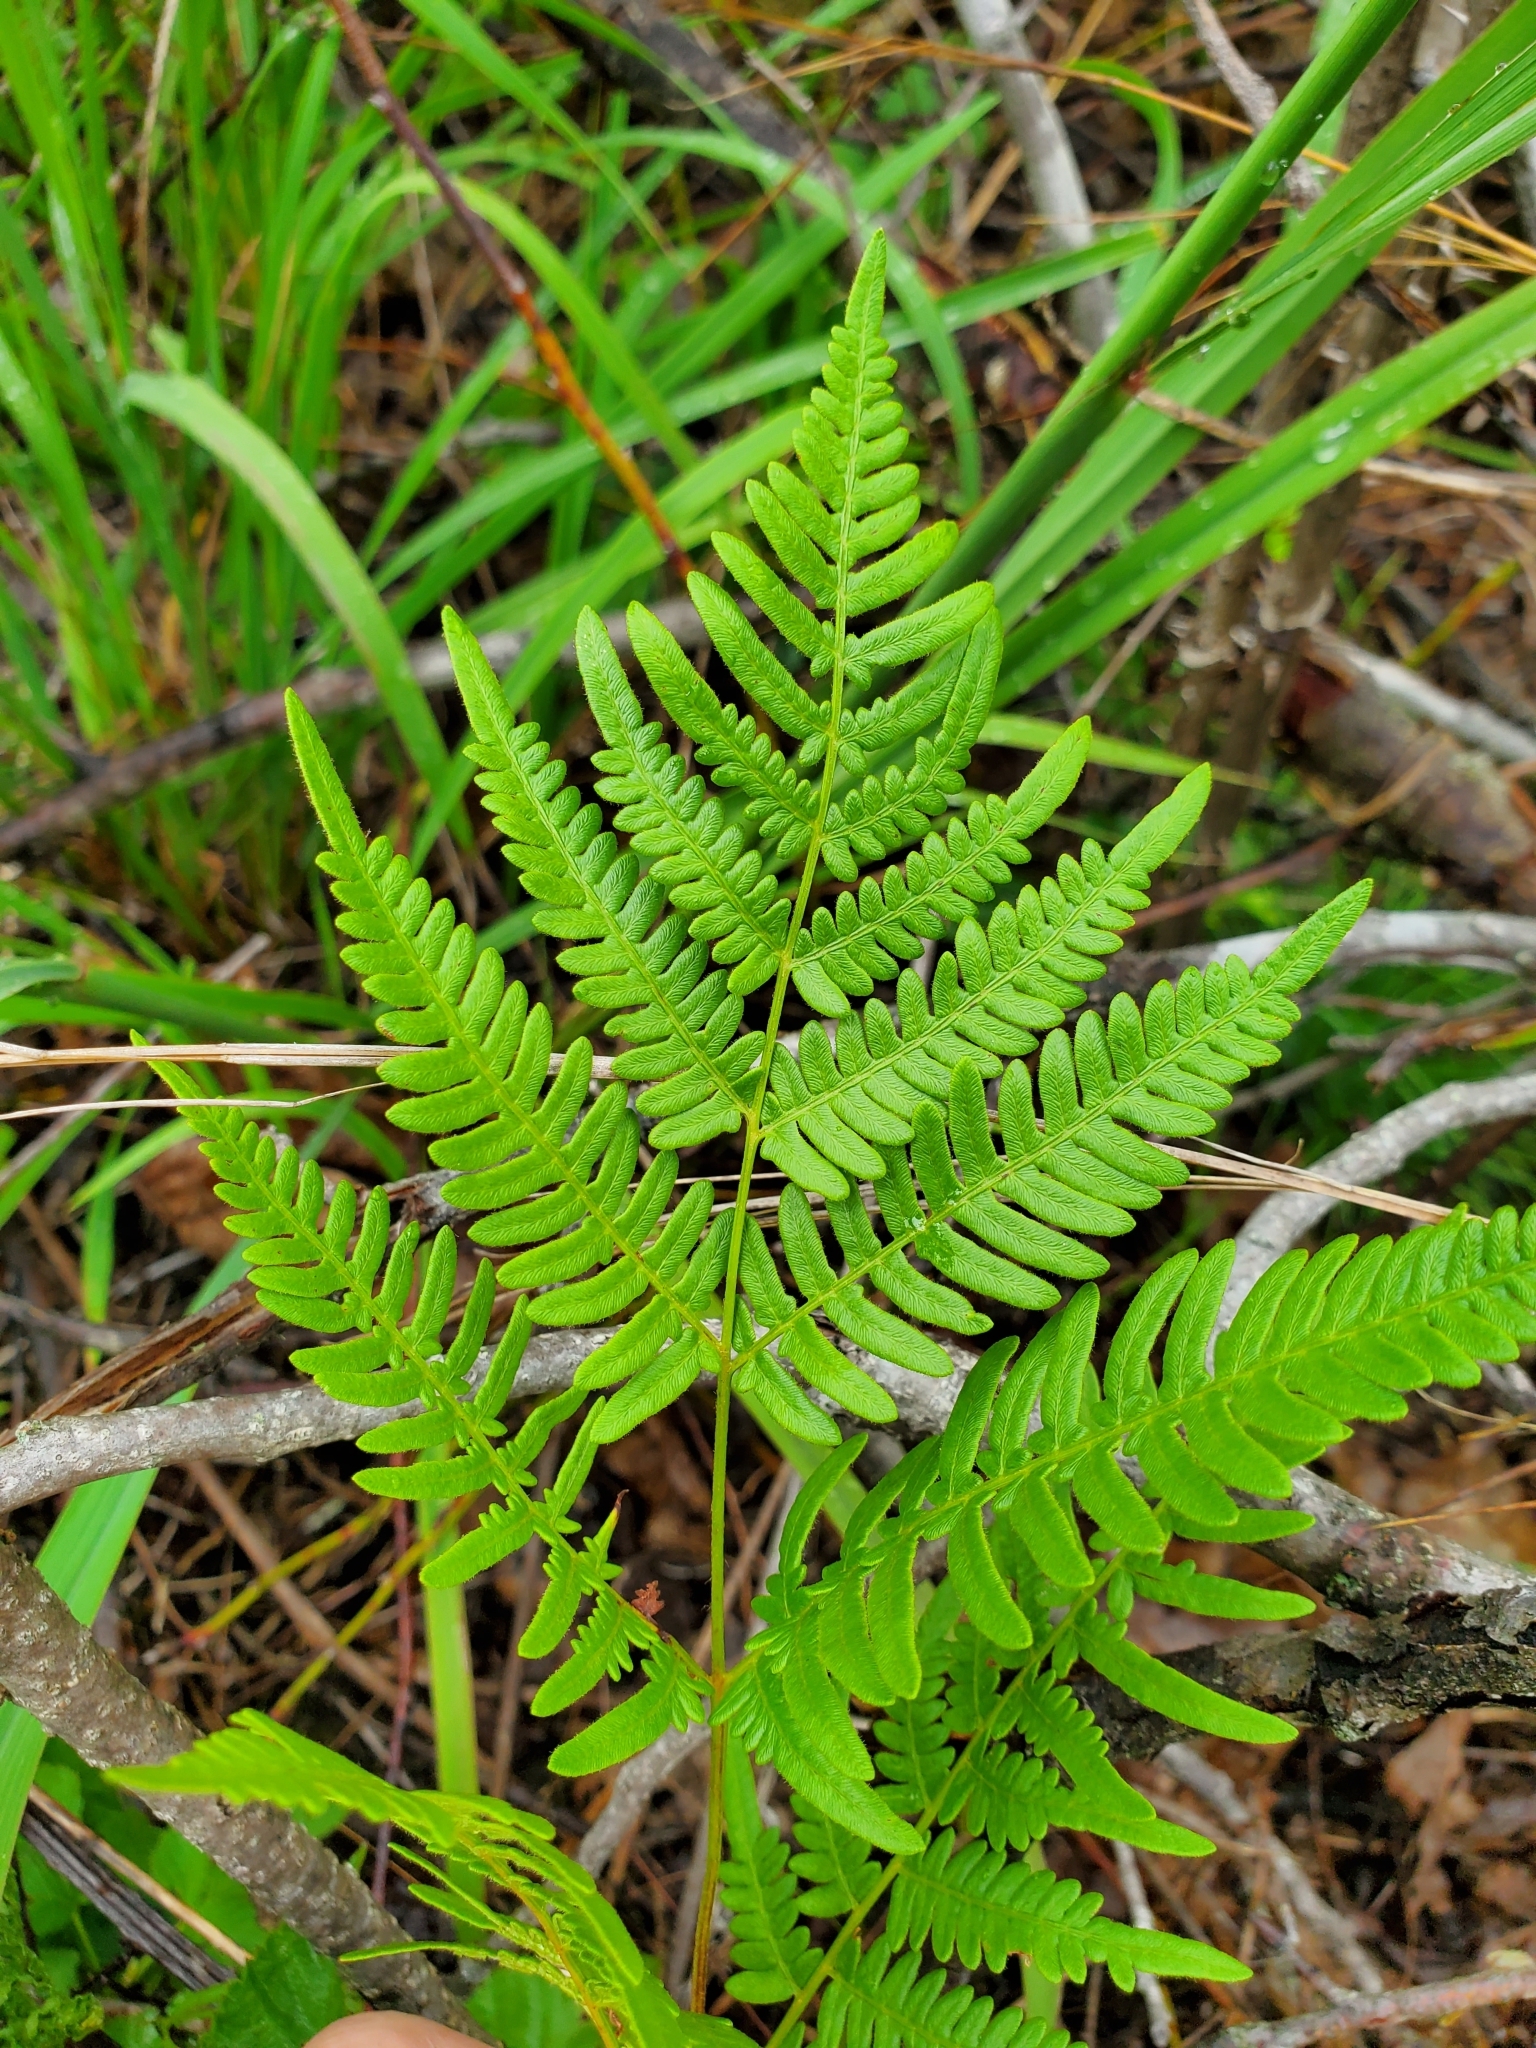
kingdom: Plantae
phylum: Tracheophyta
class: Polypodiopsida
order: Polypodiales
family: Dennstaedtiaceae
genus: Pteridium
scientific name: Pteridium aquilinum
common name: Bracken
